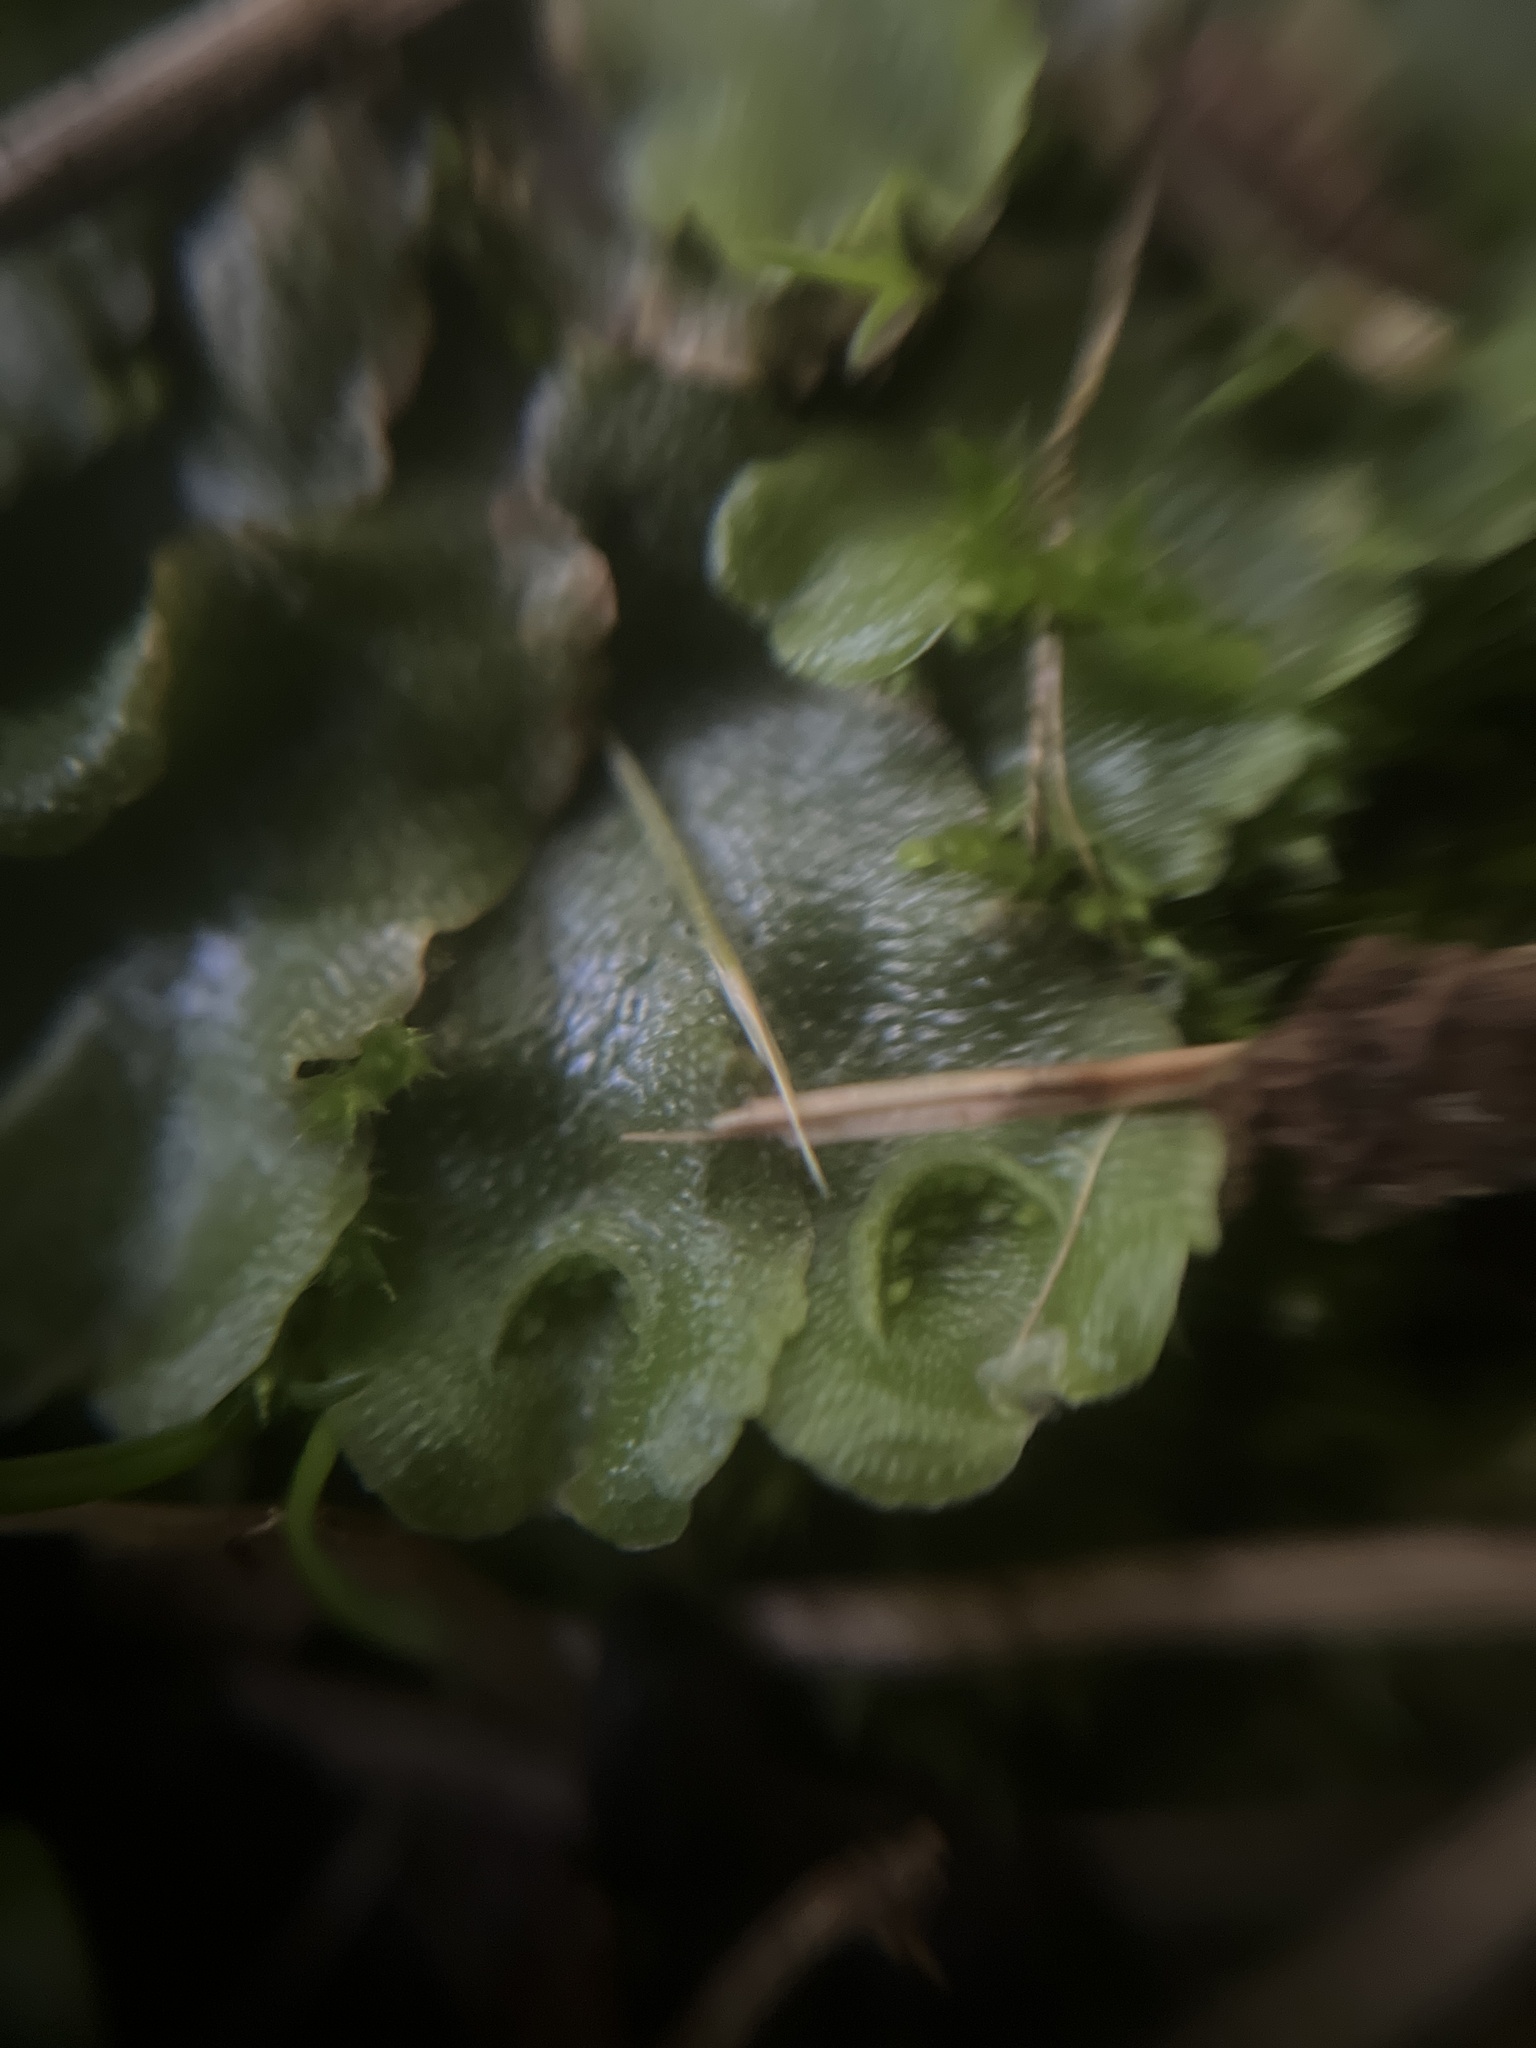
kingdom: Plantae
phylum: Marchantiophyta
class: Marchantiopsida
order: Lunulariales
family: Lunulariaceae
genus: Lunularia
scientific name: Lunularia cruciata
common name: Crescent-cup liverwort
